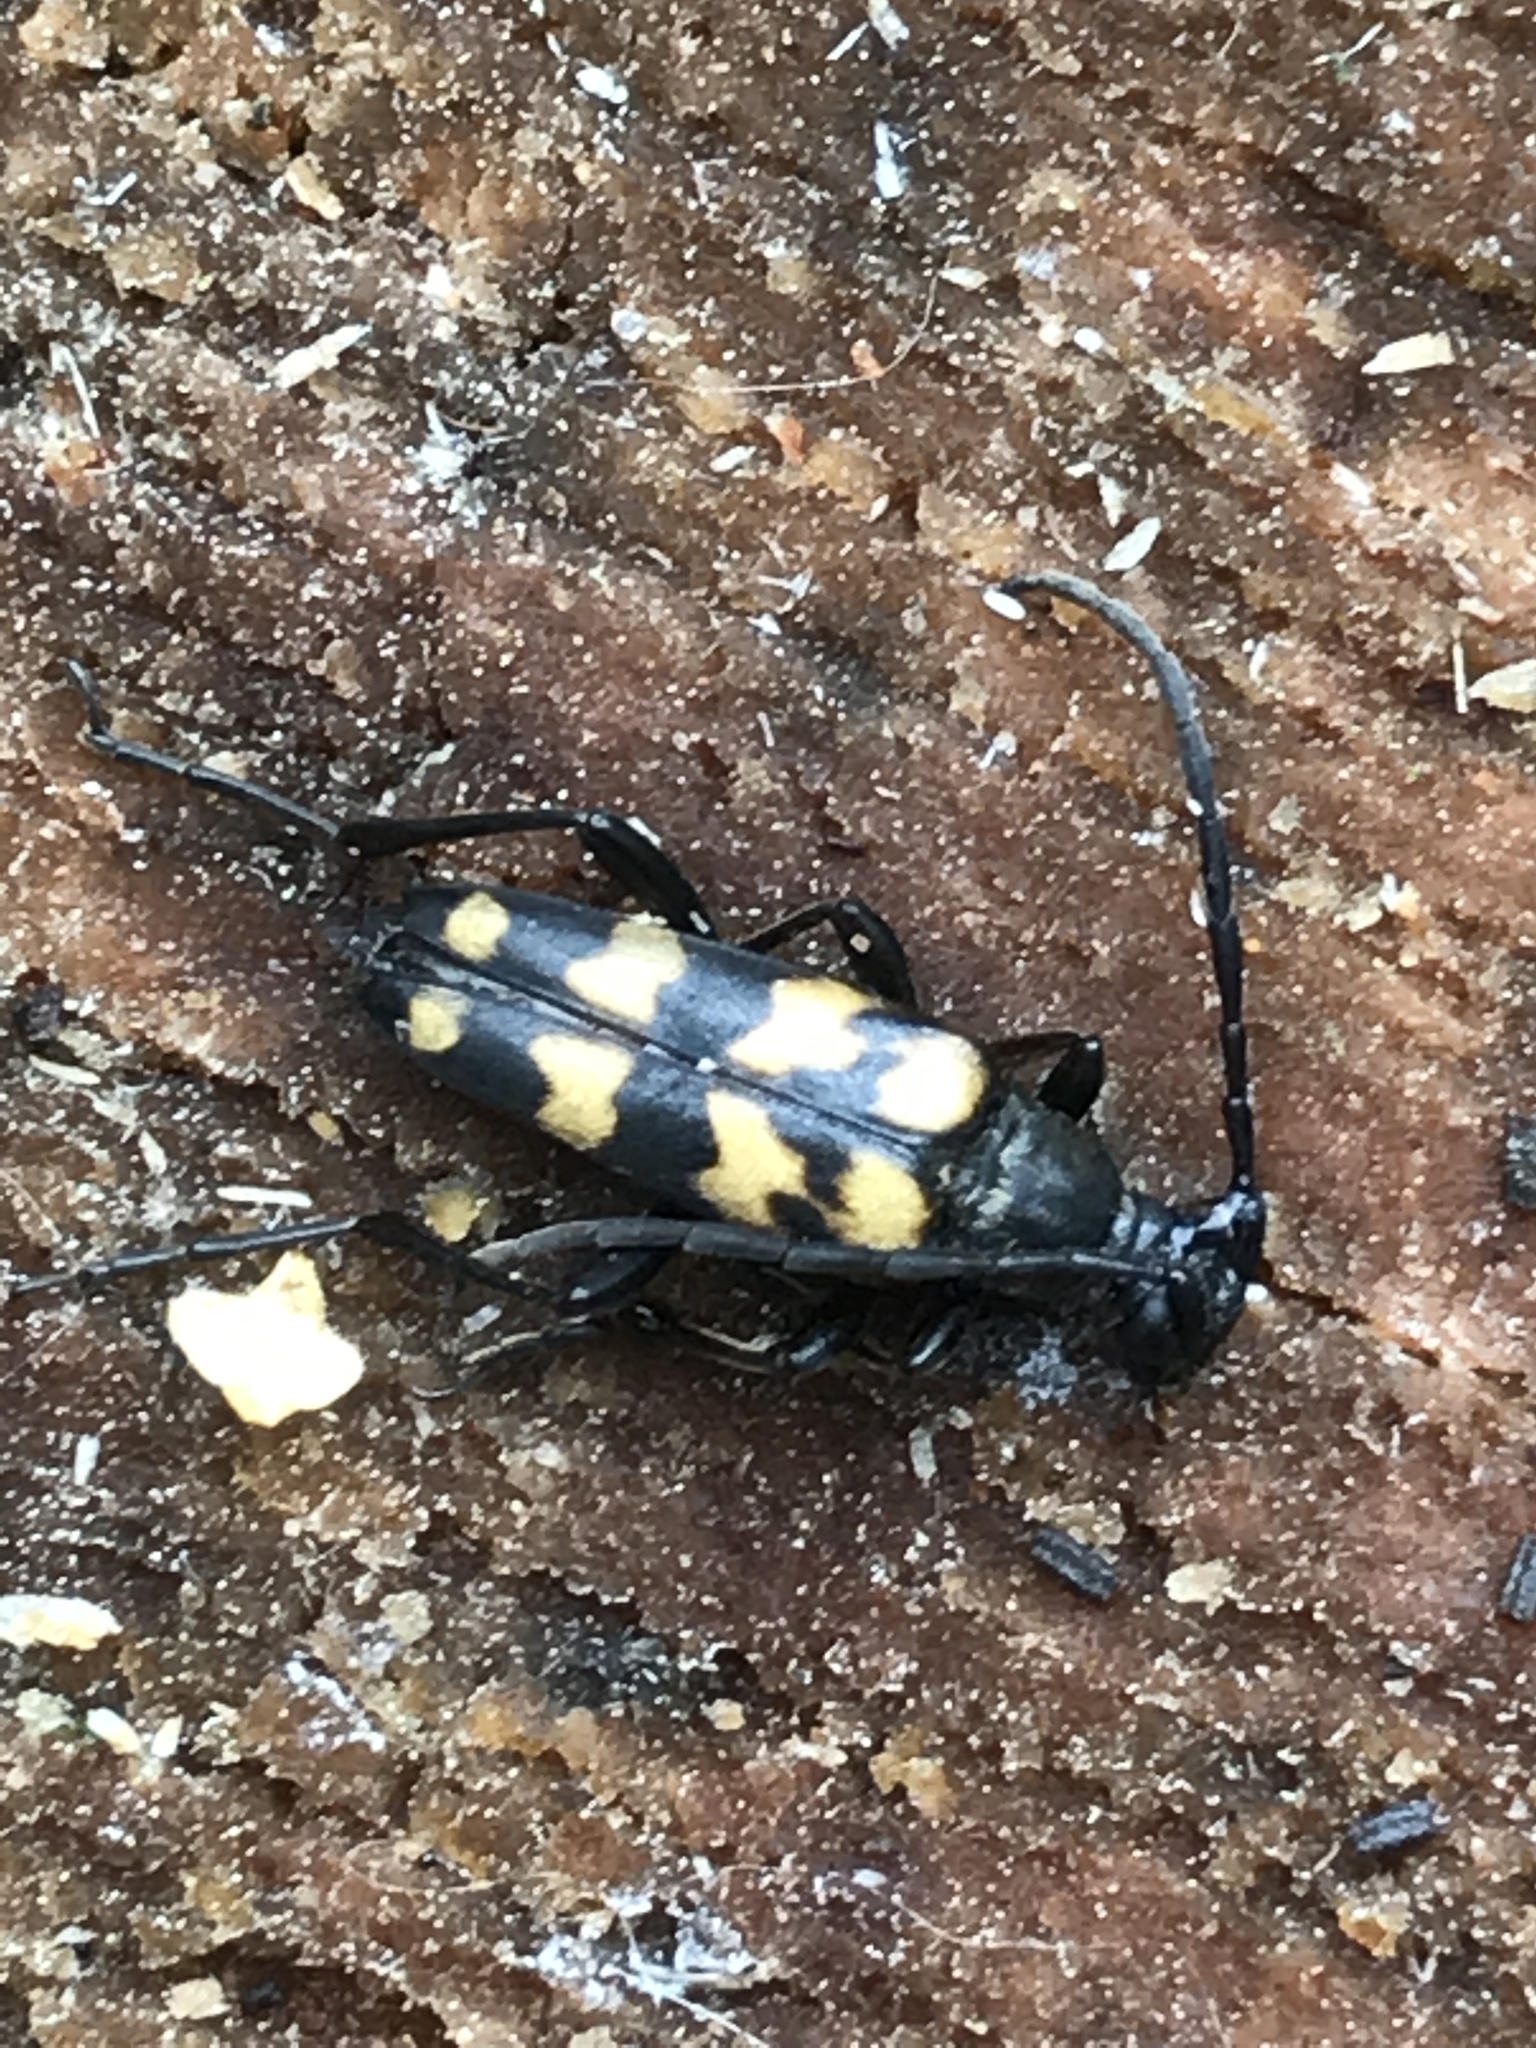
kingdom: Animalia
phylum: Arthropoda
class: Insecta
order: Coleoptera
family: Cerambycidae
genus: Leptura
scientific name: Leptura quadrifasciata
